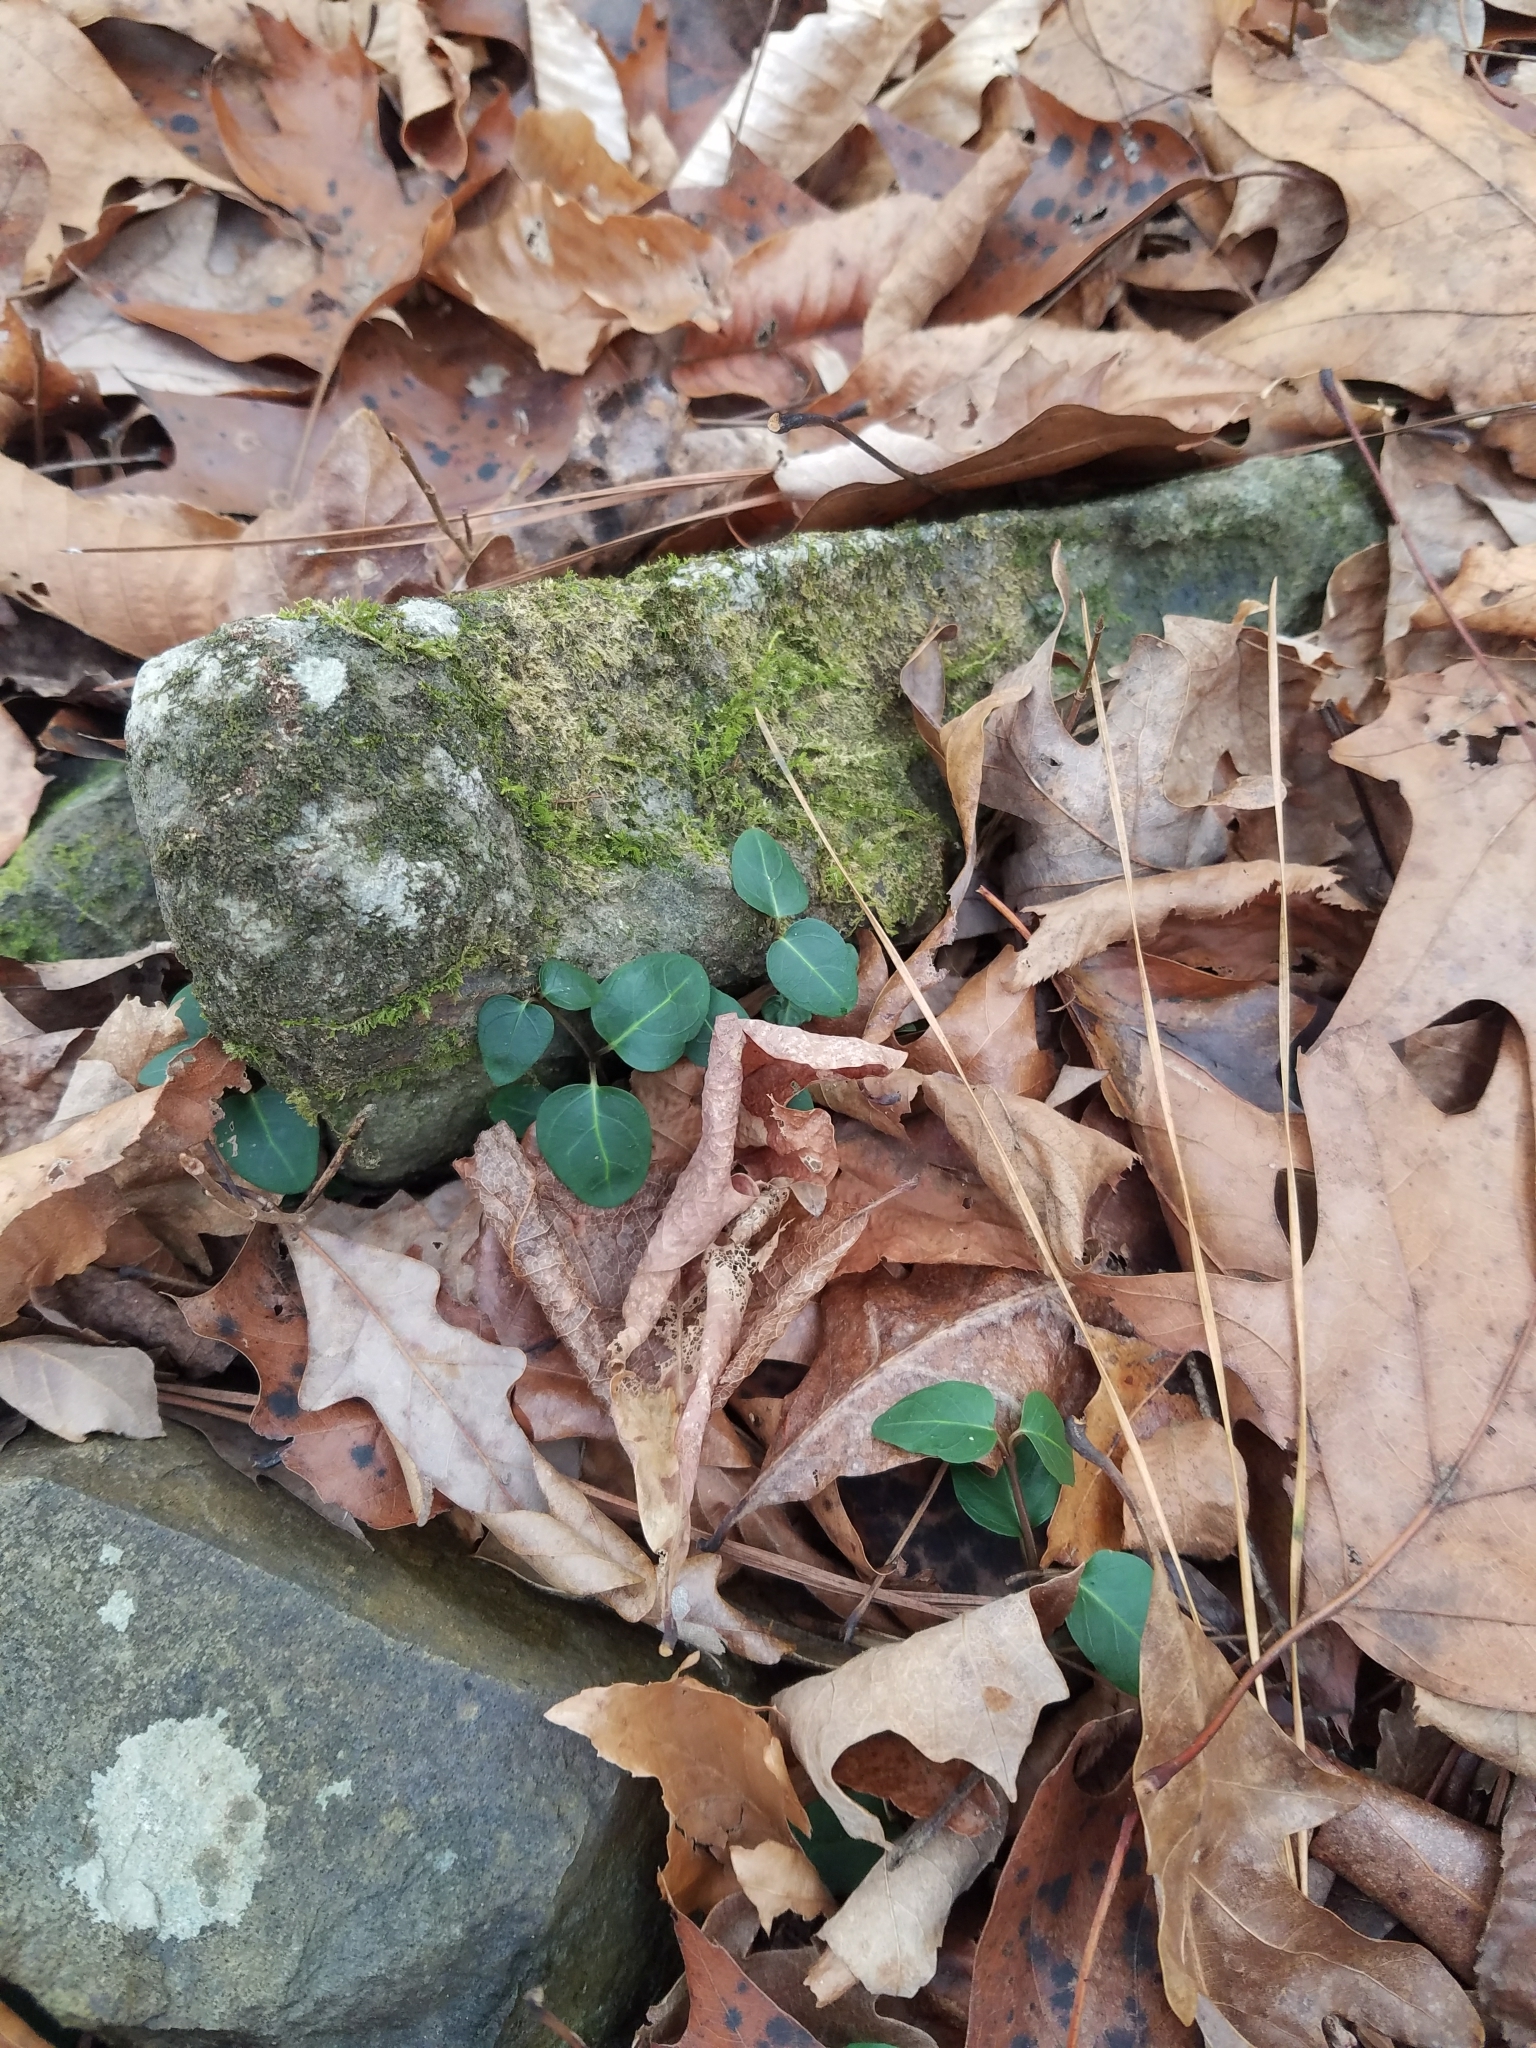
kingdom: Plantae
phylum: Tracheophyta
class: Magnoliopsida
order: Gentianales
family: Rubiaceae
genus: Mitchella
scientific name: Mitchella repens
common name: Partridge-berry
